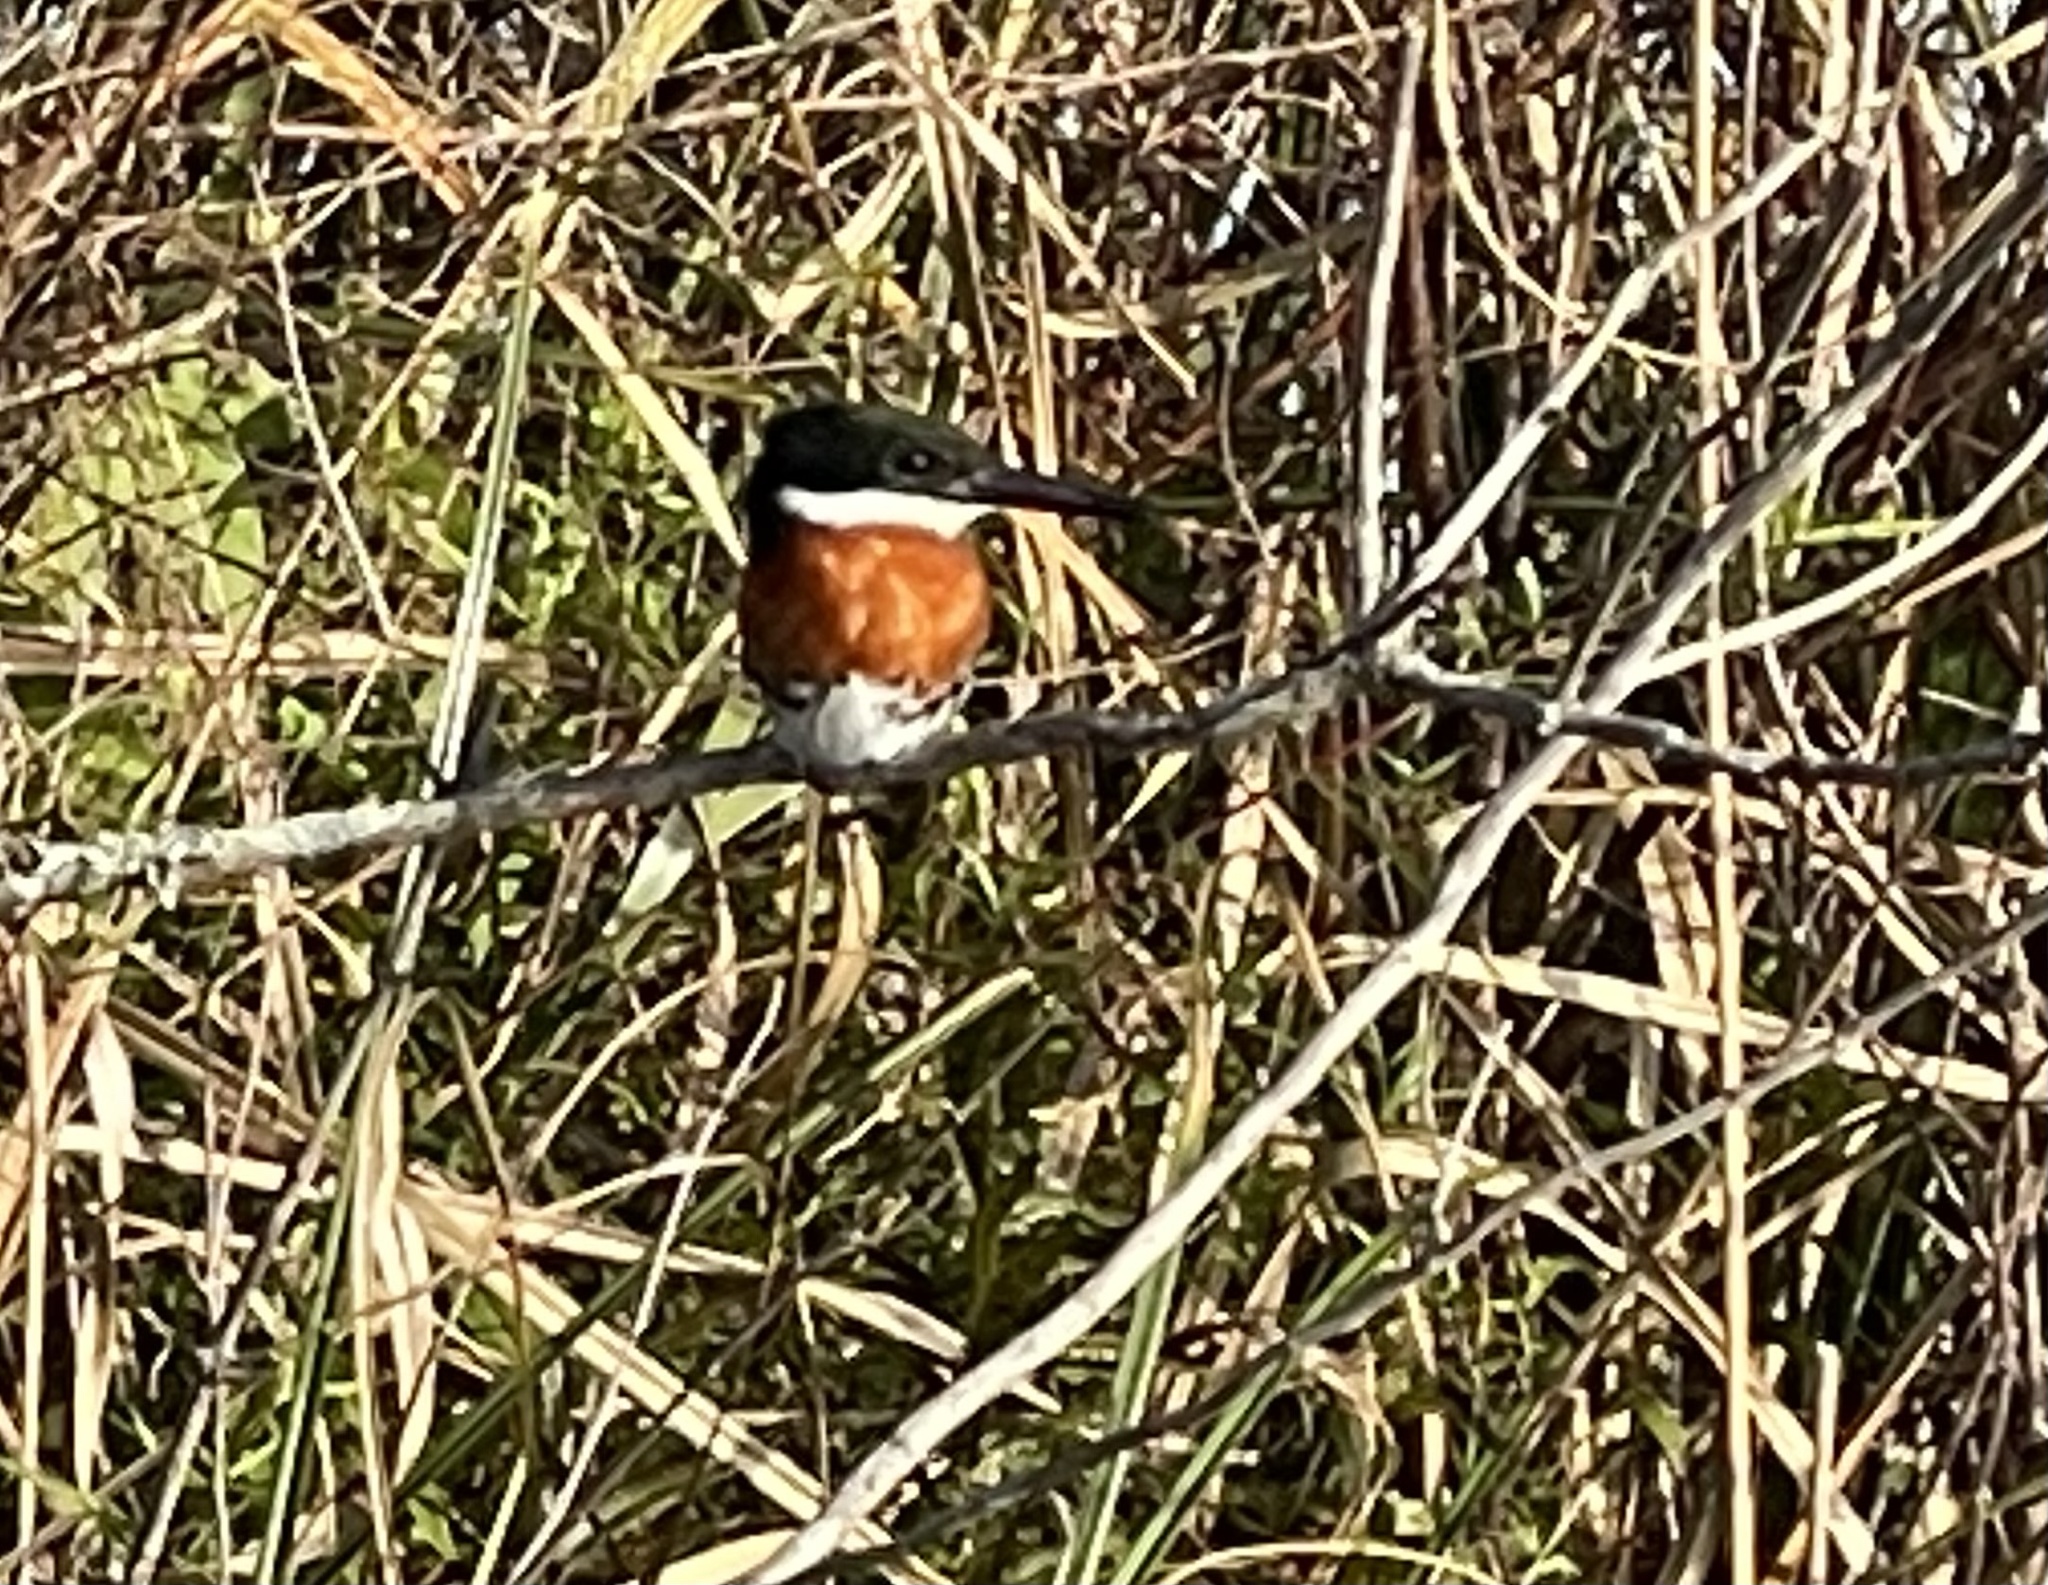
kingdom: Animalia
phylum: Chordata
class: Aves
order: Coraciiformes
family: Alcedinidae
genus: Chloroceryle
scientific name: Chloroceryle americana
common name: Green kingfisher
